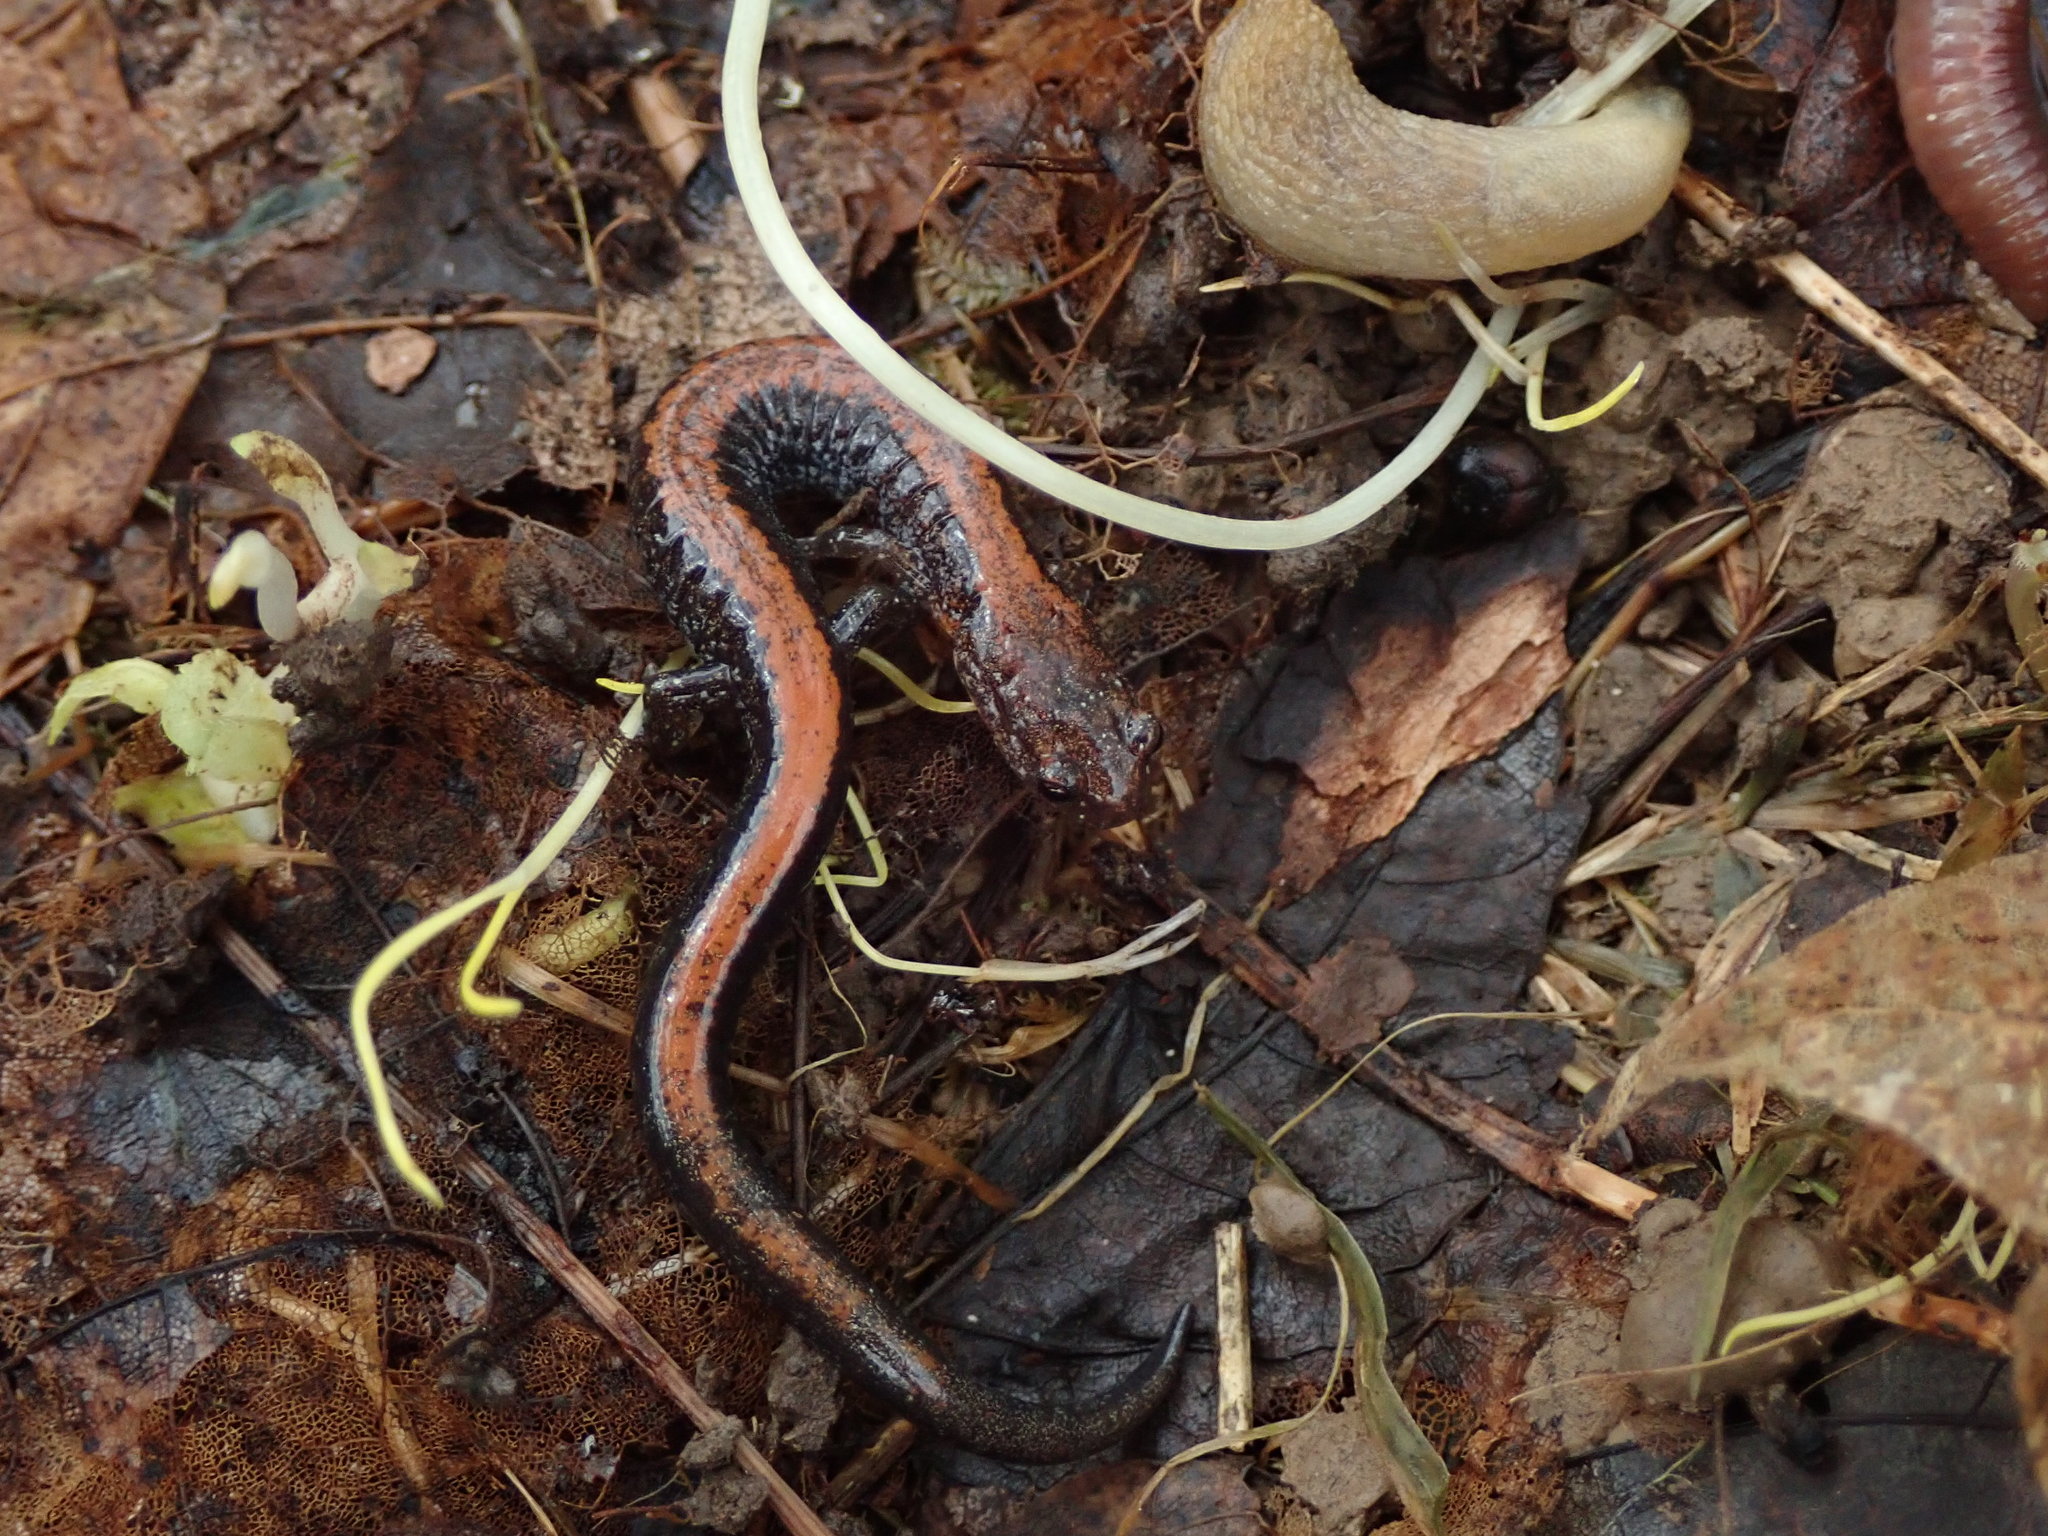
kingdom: Animalia
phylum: Chordata
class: Amphibia
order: Caudata
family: Plethodontidae
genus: Plethodon
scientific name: Plethodon cinereus
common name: Redback salamander
